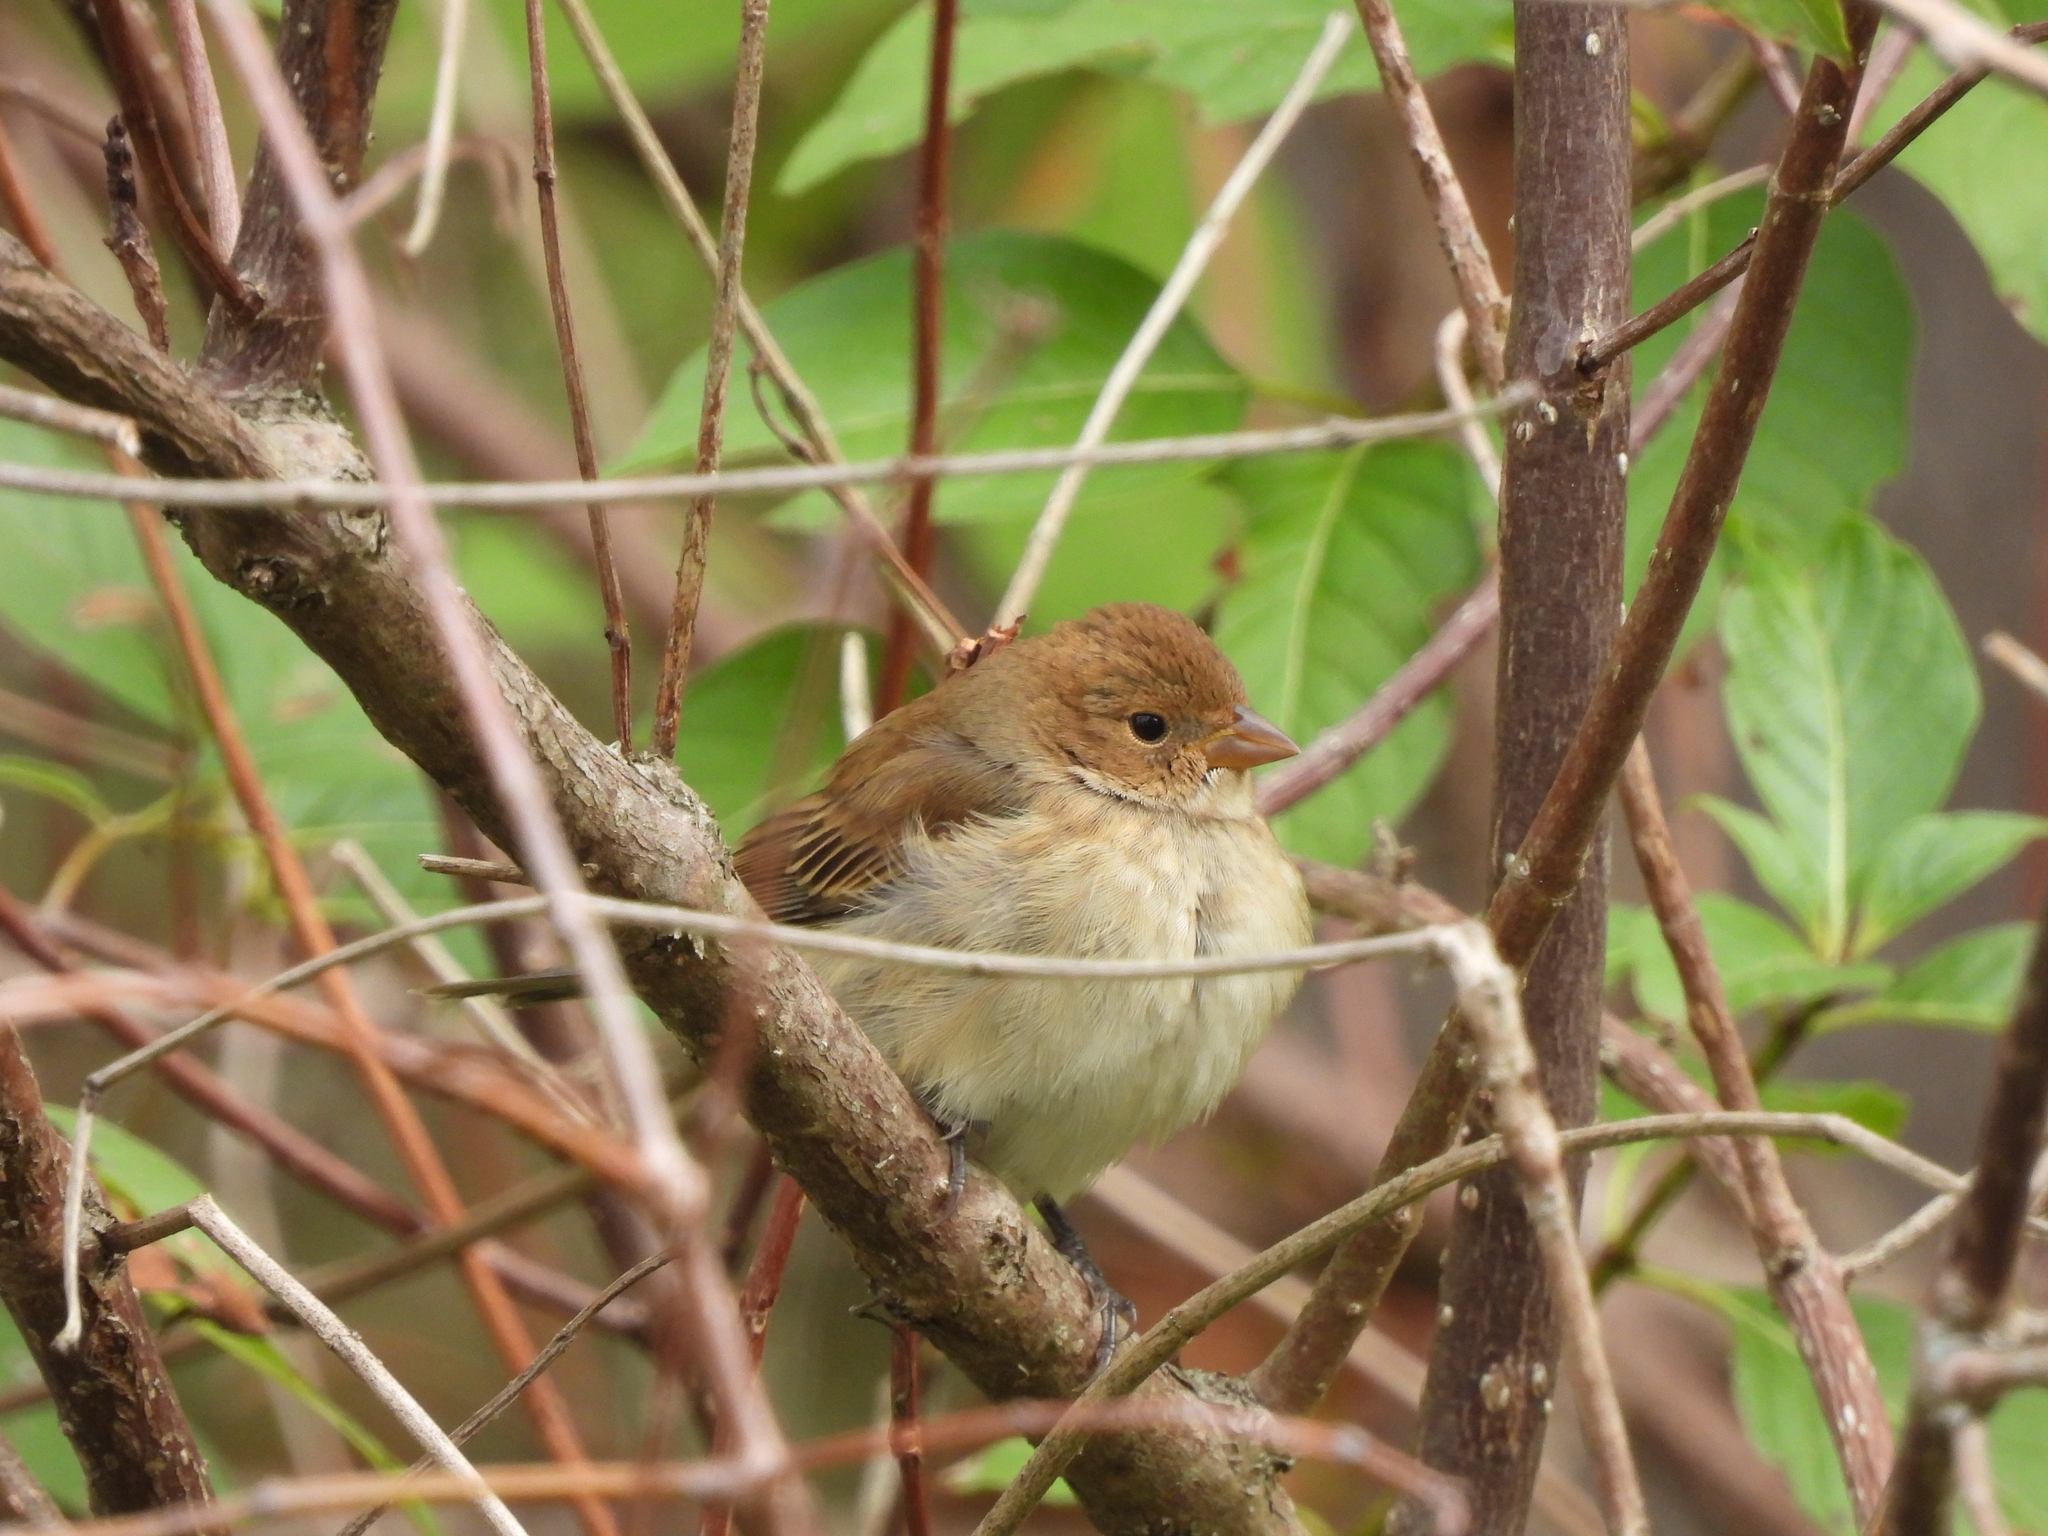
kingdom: Animalia
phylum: Chordata
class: Aves
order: Passeriformes
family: Cardinalidae
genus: Passerina
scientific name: Passerina cyanea
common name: Indigo bunting
